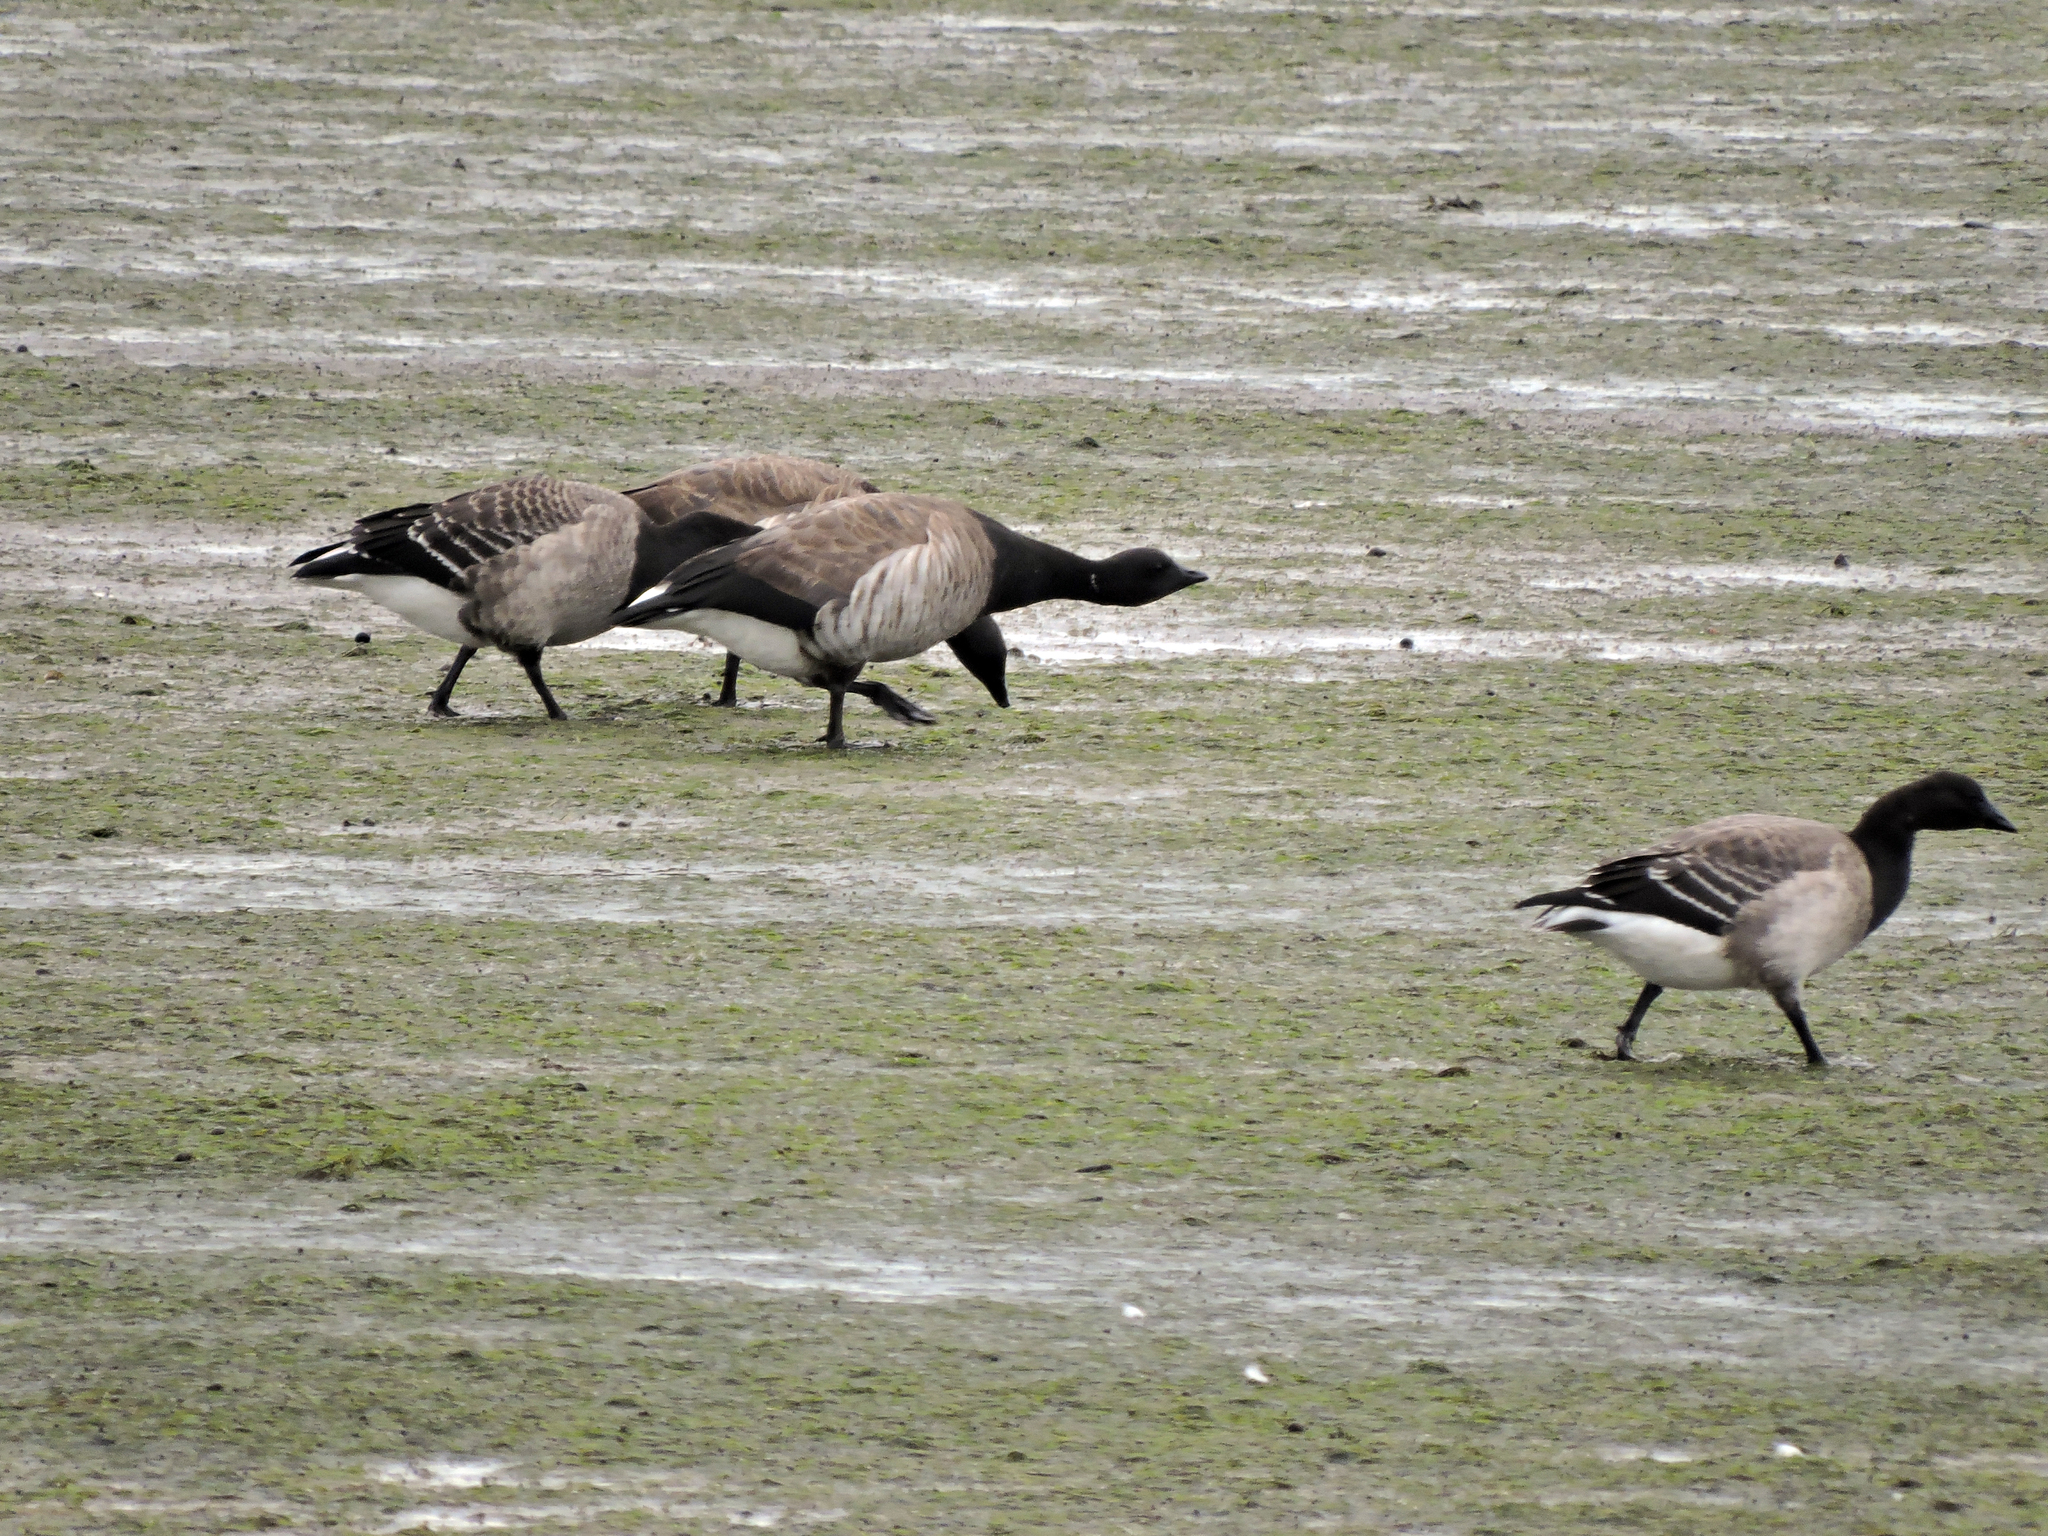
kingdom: Animalia
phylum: Chordata
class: Aves
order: Anseriformes
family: Anatidae
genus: Branta
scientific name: Branta bernicla
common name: Brant goose
